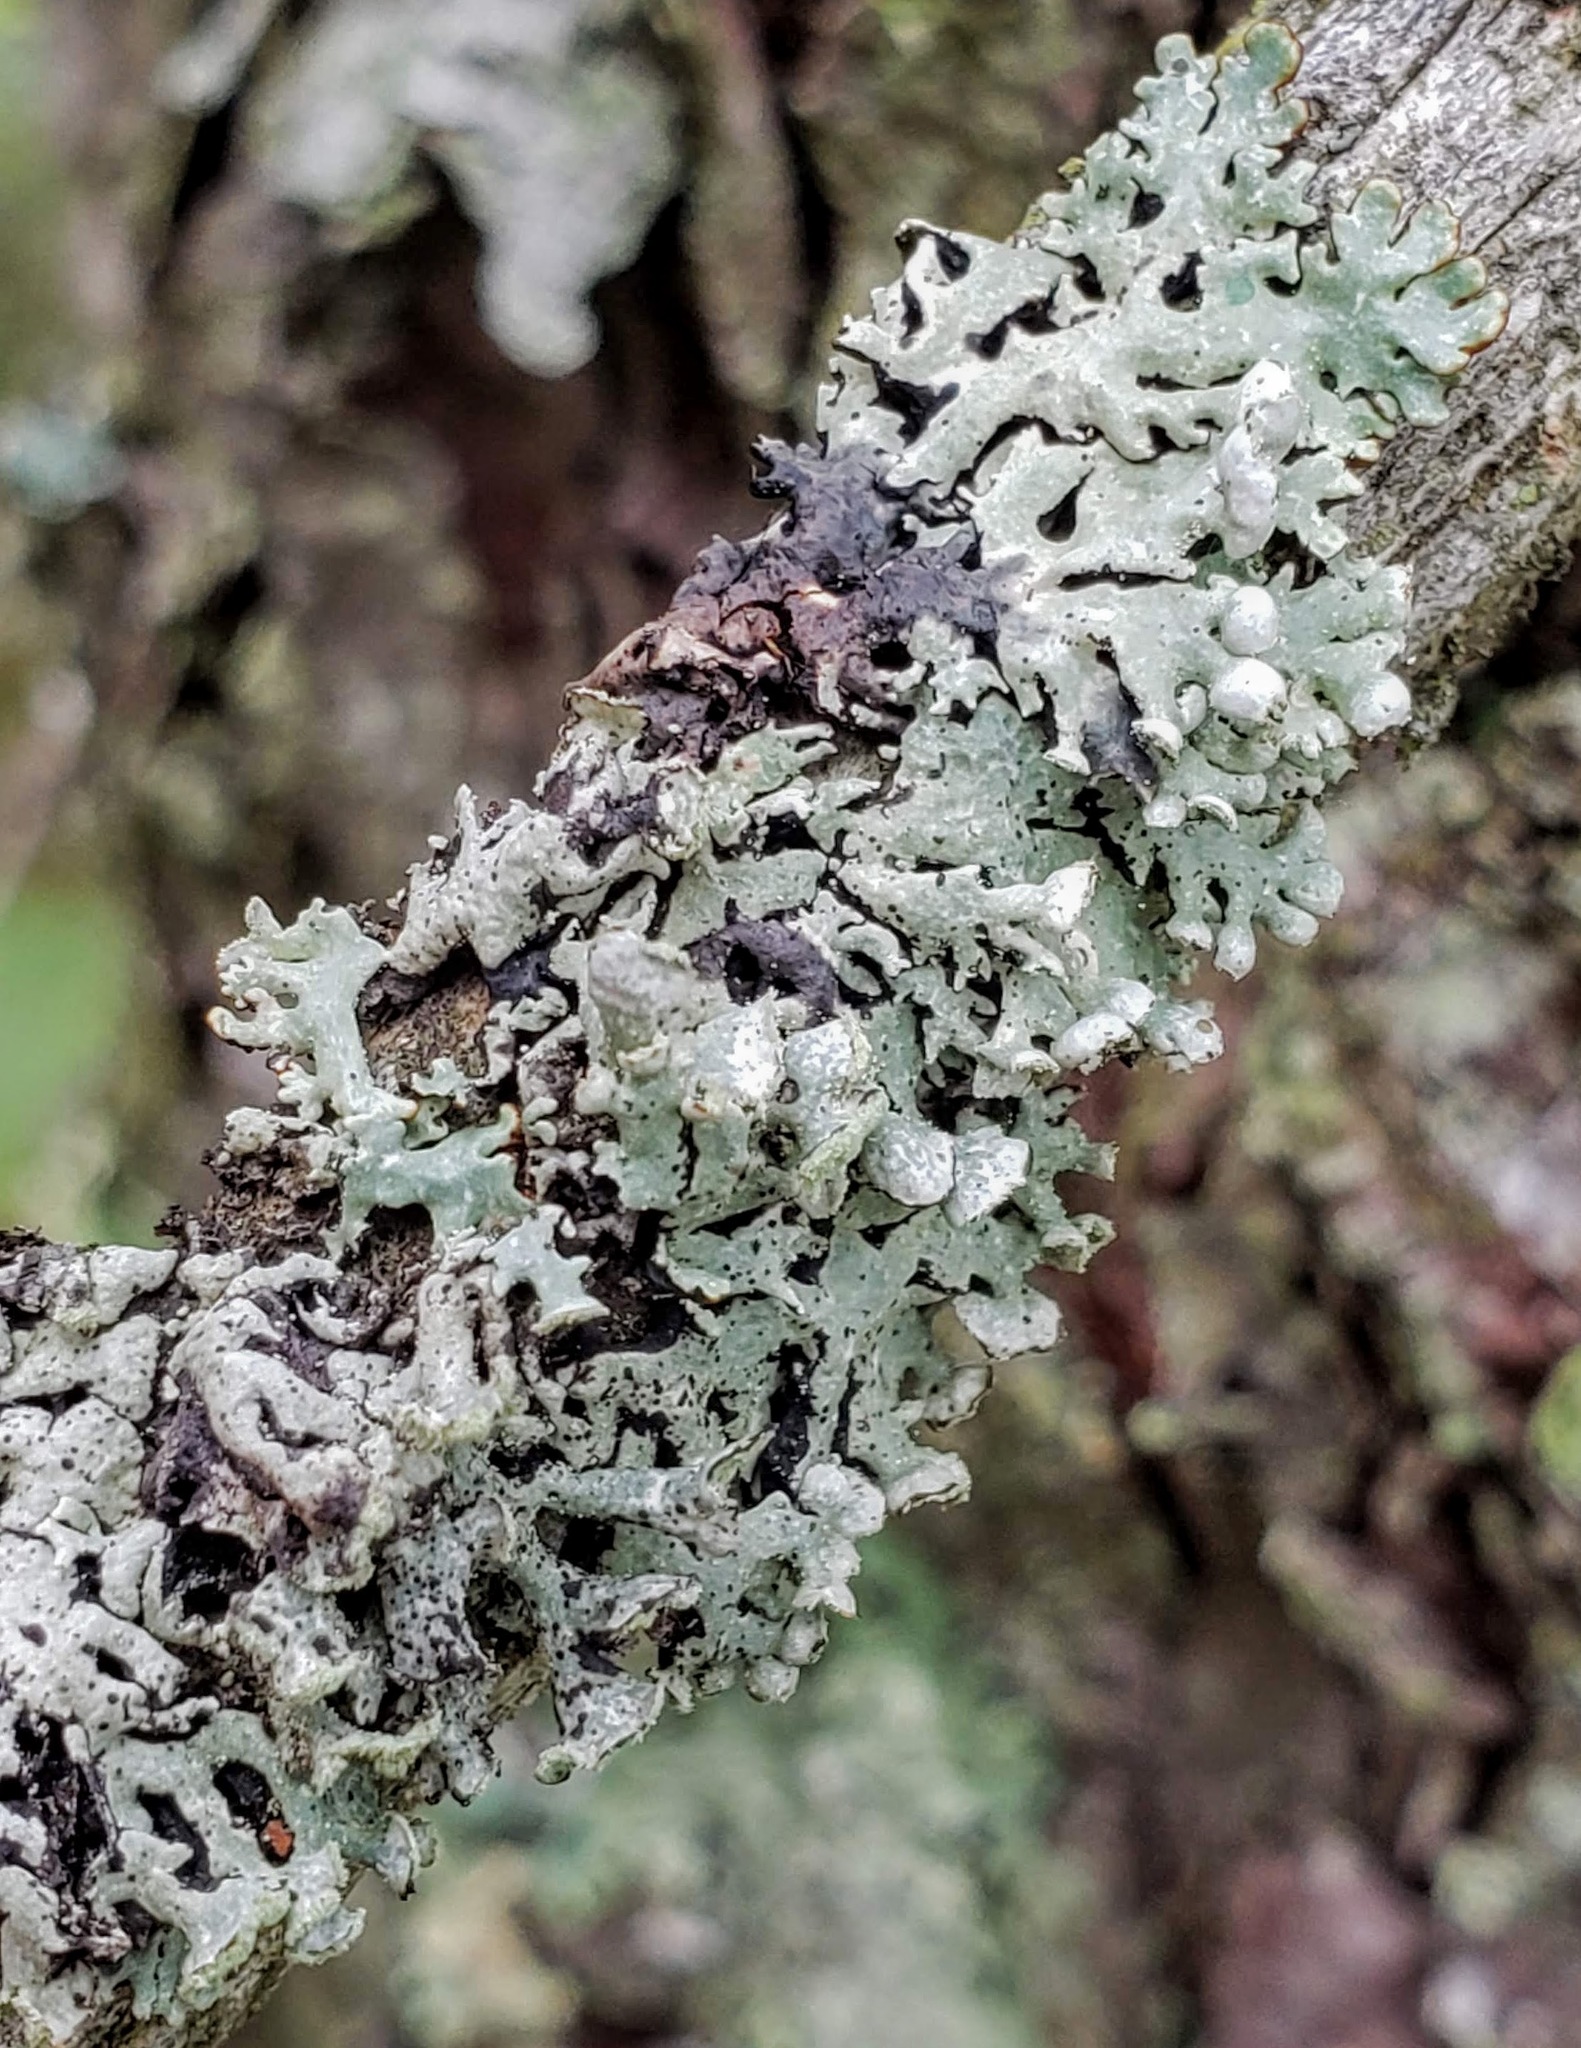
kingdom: Fungi
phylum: Ascomycota
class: Lecanoromycetes
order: Lecanorales
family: Parmeliaceae
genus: Hypogymnia
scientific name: Hypogymnia physodes
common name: Dark crottle
